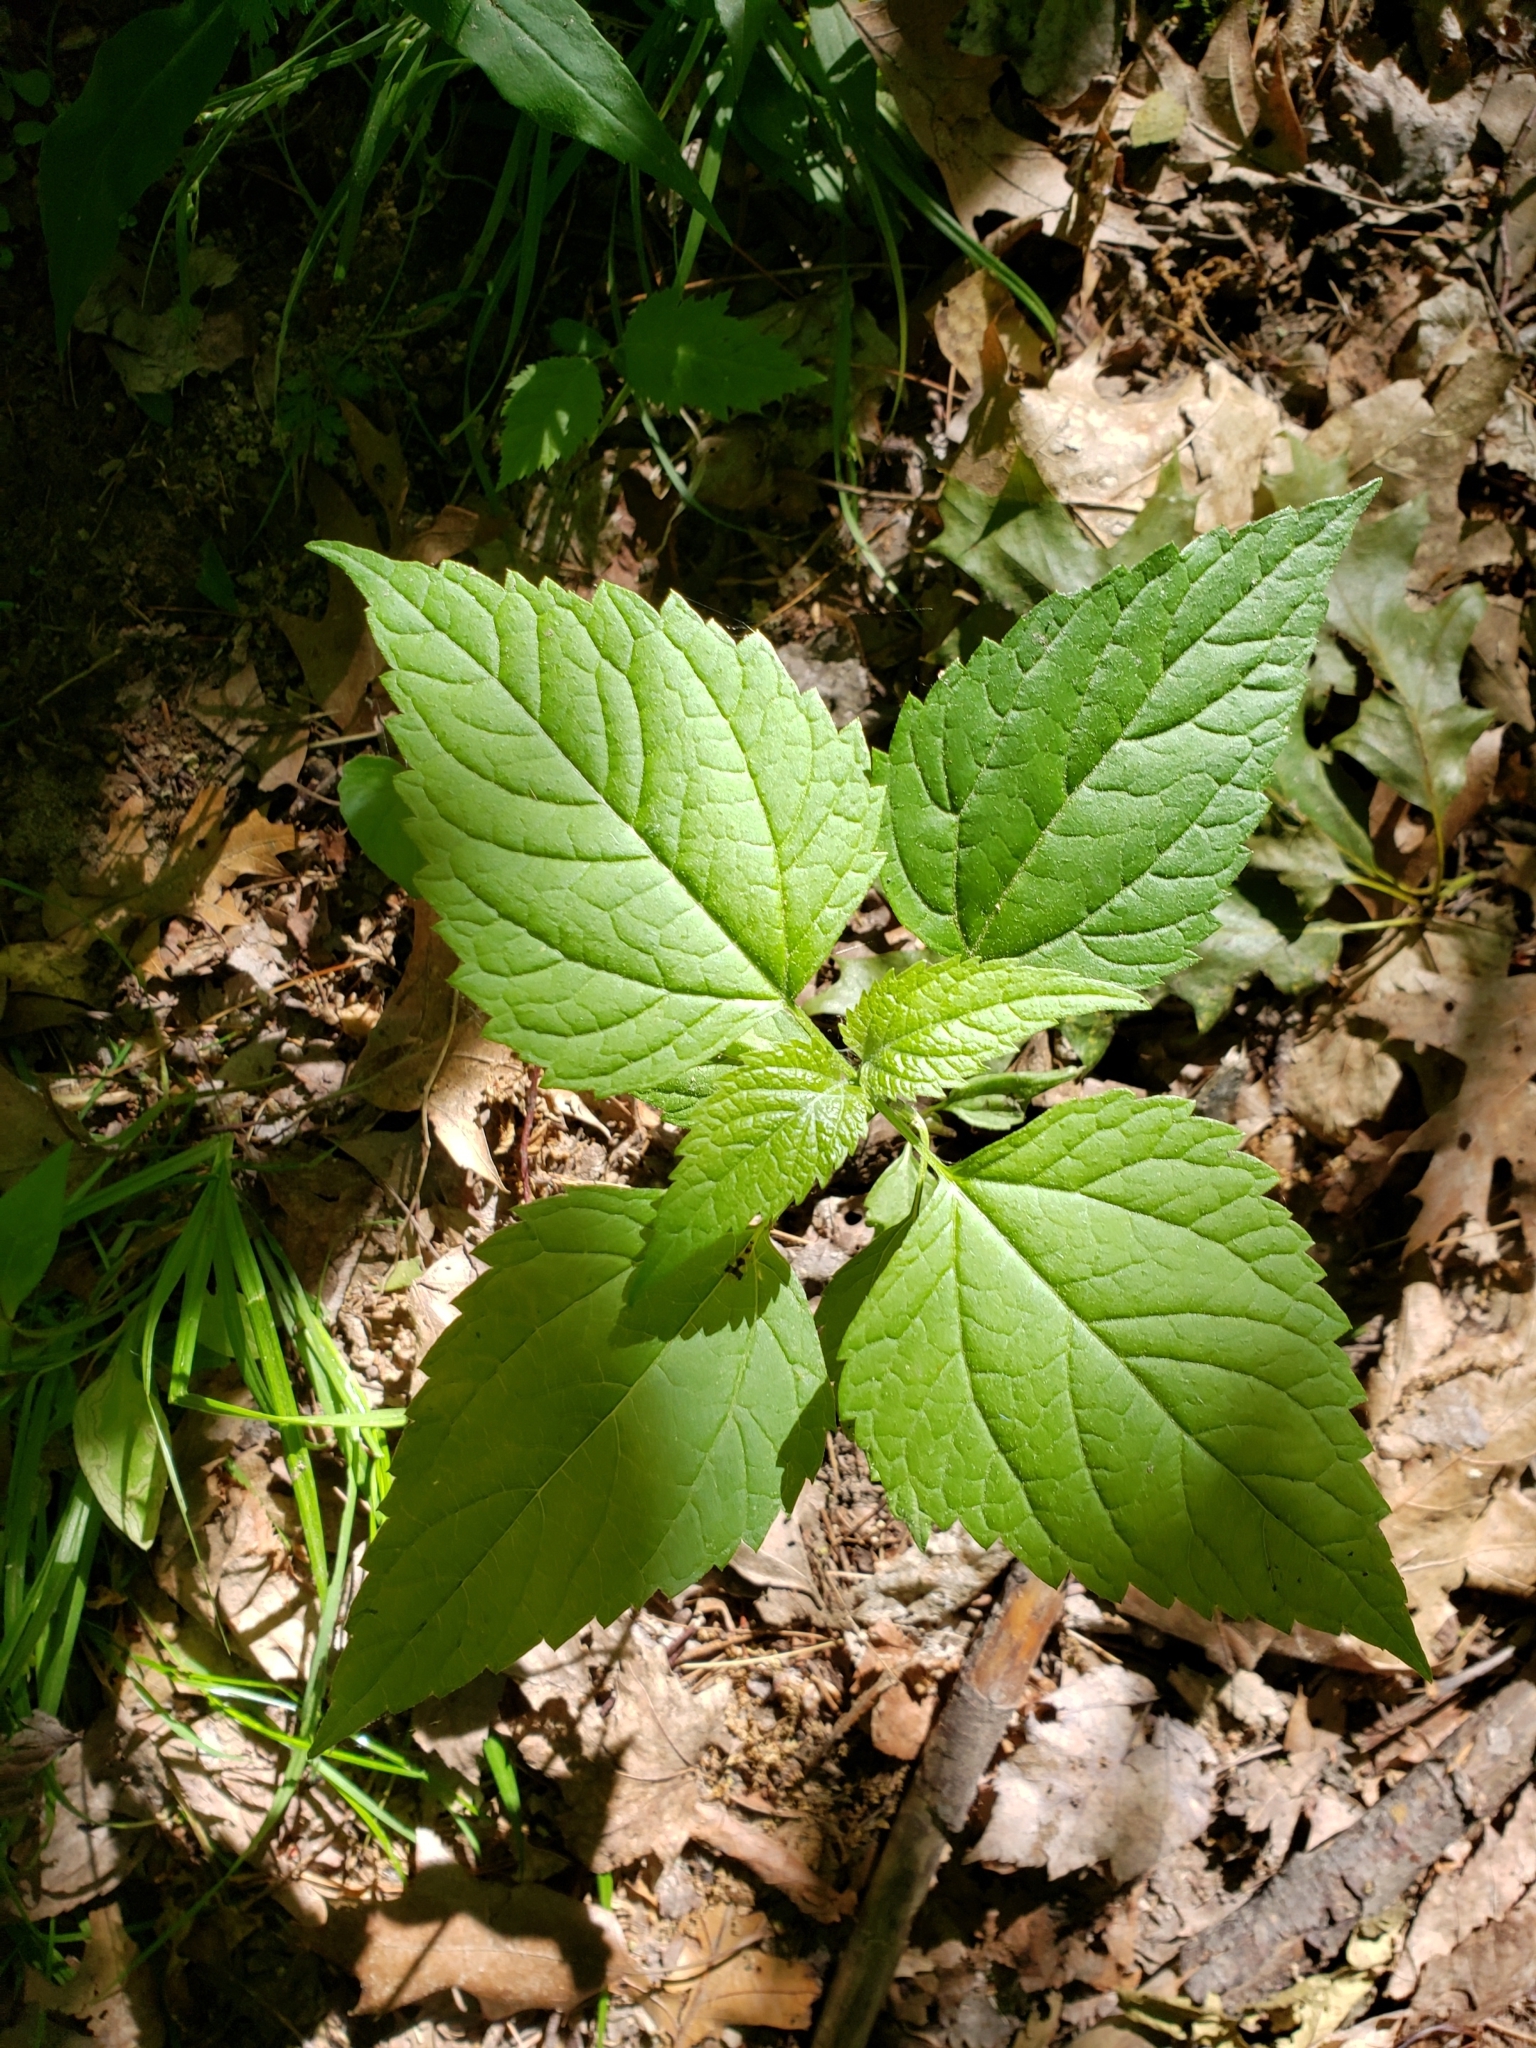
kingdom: Plantae
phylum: Tracheophyta
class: Magnoliopsida
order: Lamiales
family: Phrymaceae
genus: Phryma
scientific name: Phryma leptostachya
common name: American lopseed
